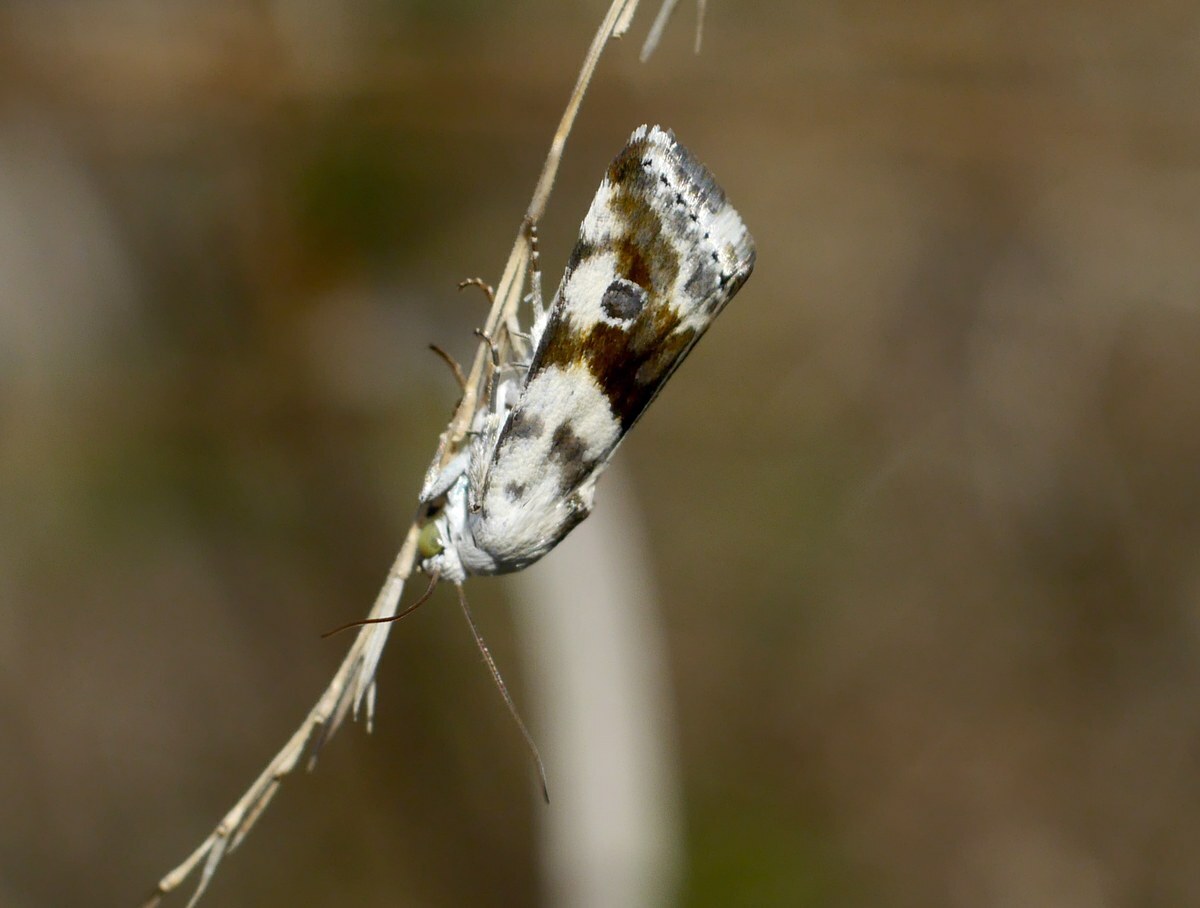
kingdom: Animalia
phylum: Arthropoda
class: Insecta
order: Lepidoptera
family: Noctuidae
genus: Acontia
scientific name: Acontia candefacta
